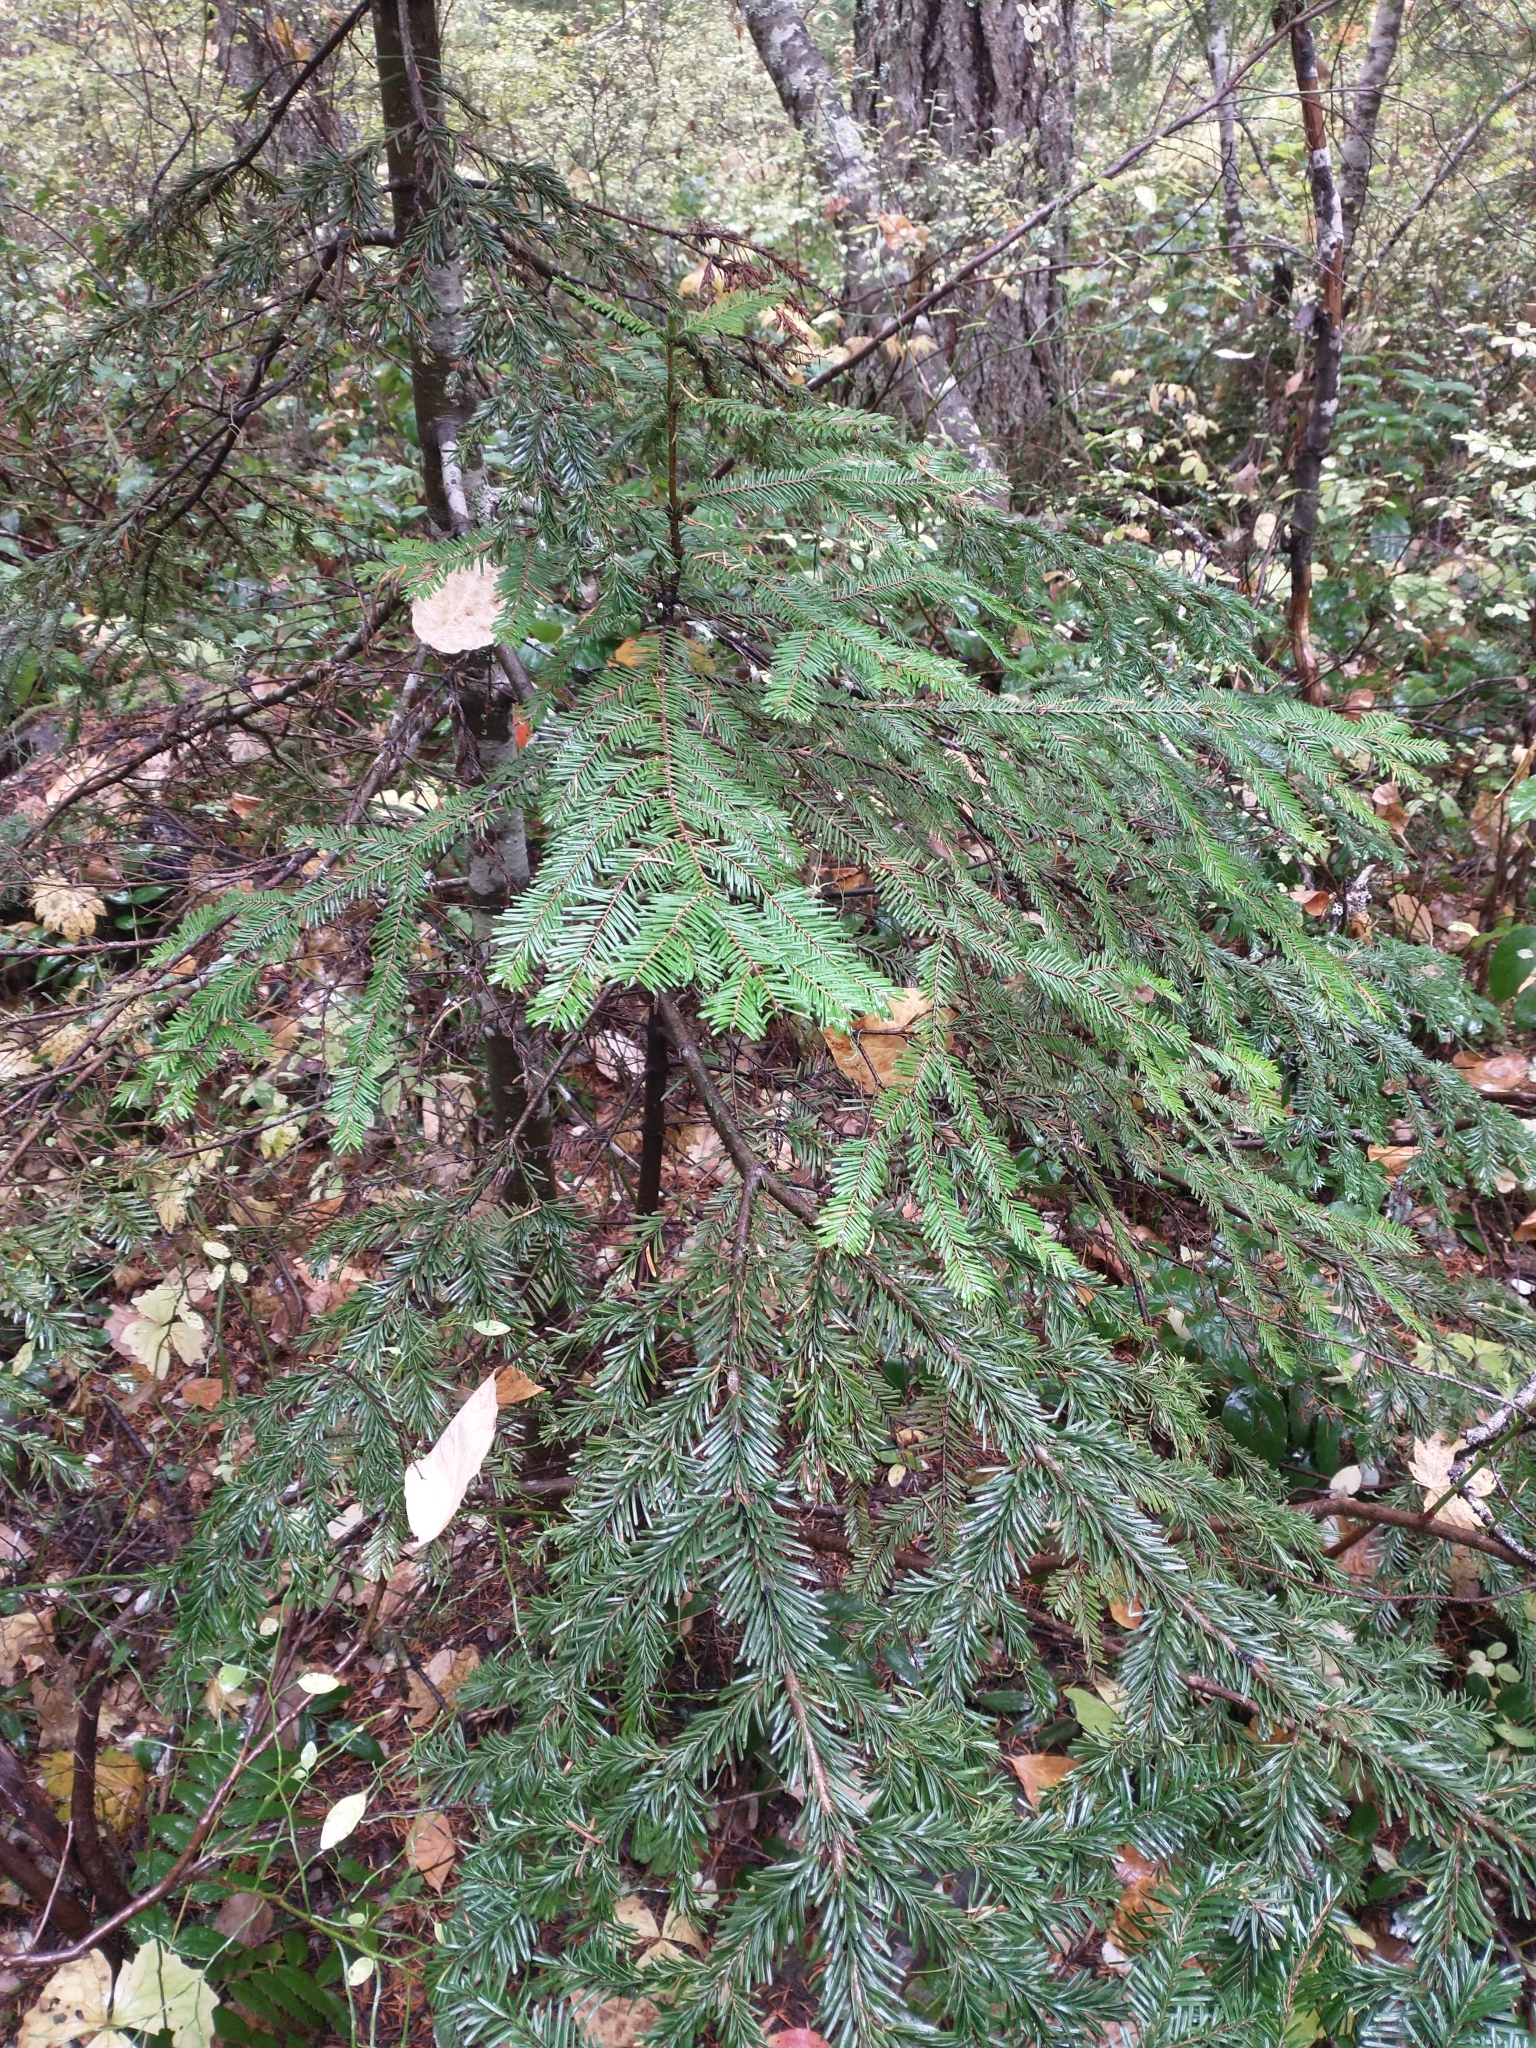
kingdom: Plantae
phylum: Tracheophyta
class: Pinopsida
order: Pinales
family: Pinaceae
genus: Abies
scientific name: Abies amabilis
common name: Pacific silver fir
